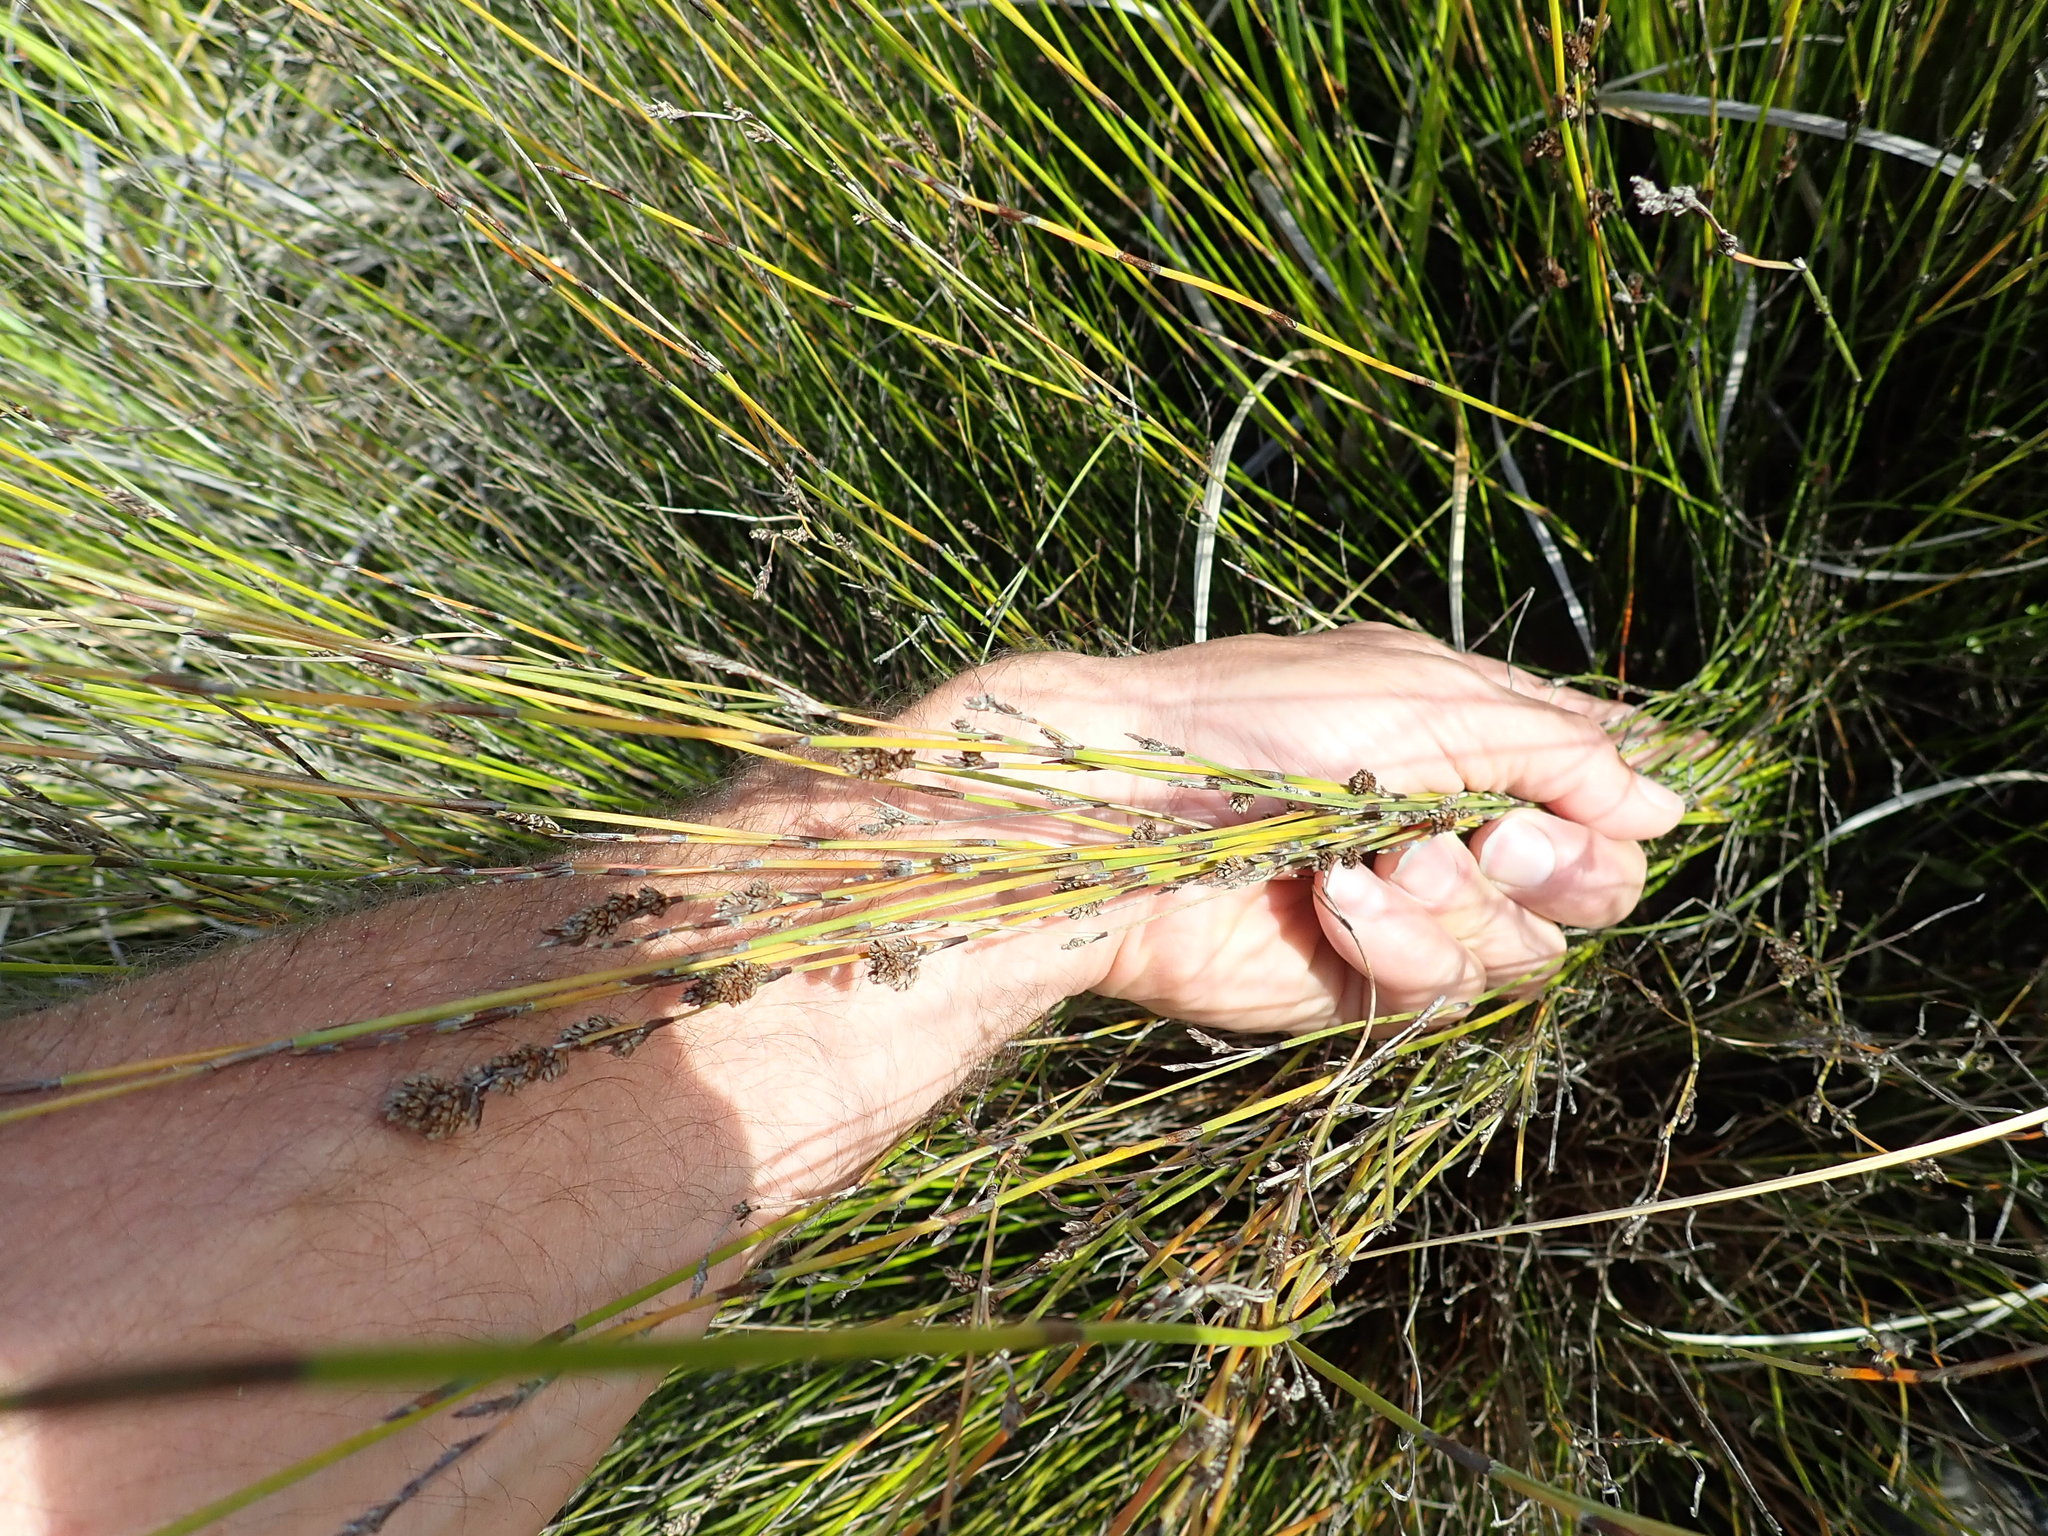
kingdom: Plantae
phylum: Tracheophyta
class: Liliopsida
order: Poales
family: Restionaceae
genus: Apodasmia
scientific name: Apodasmia similis
